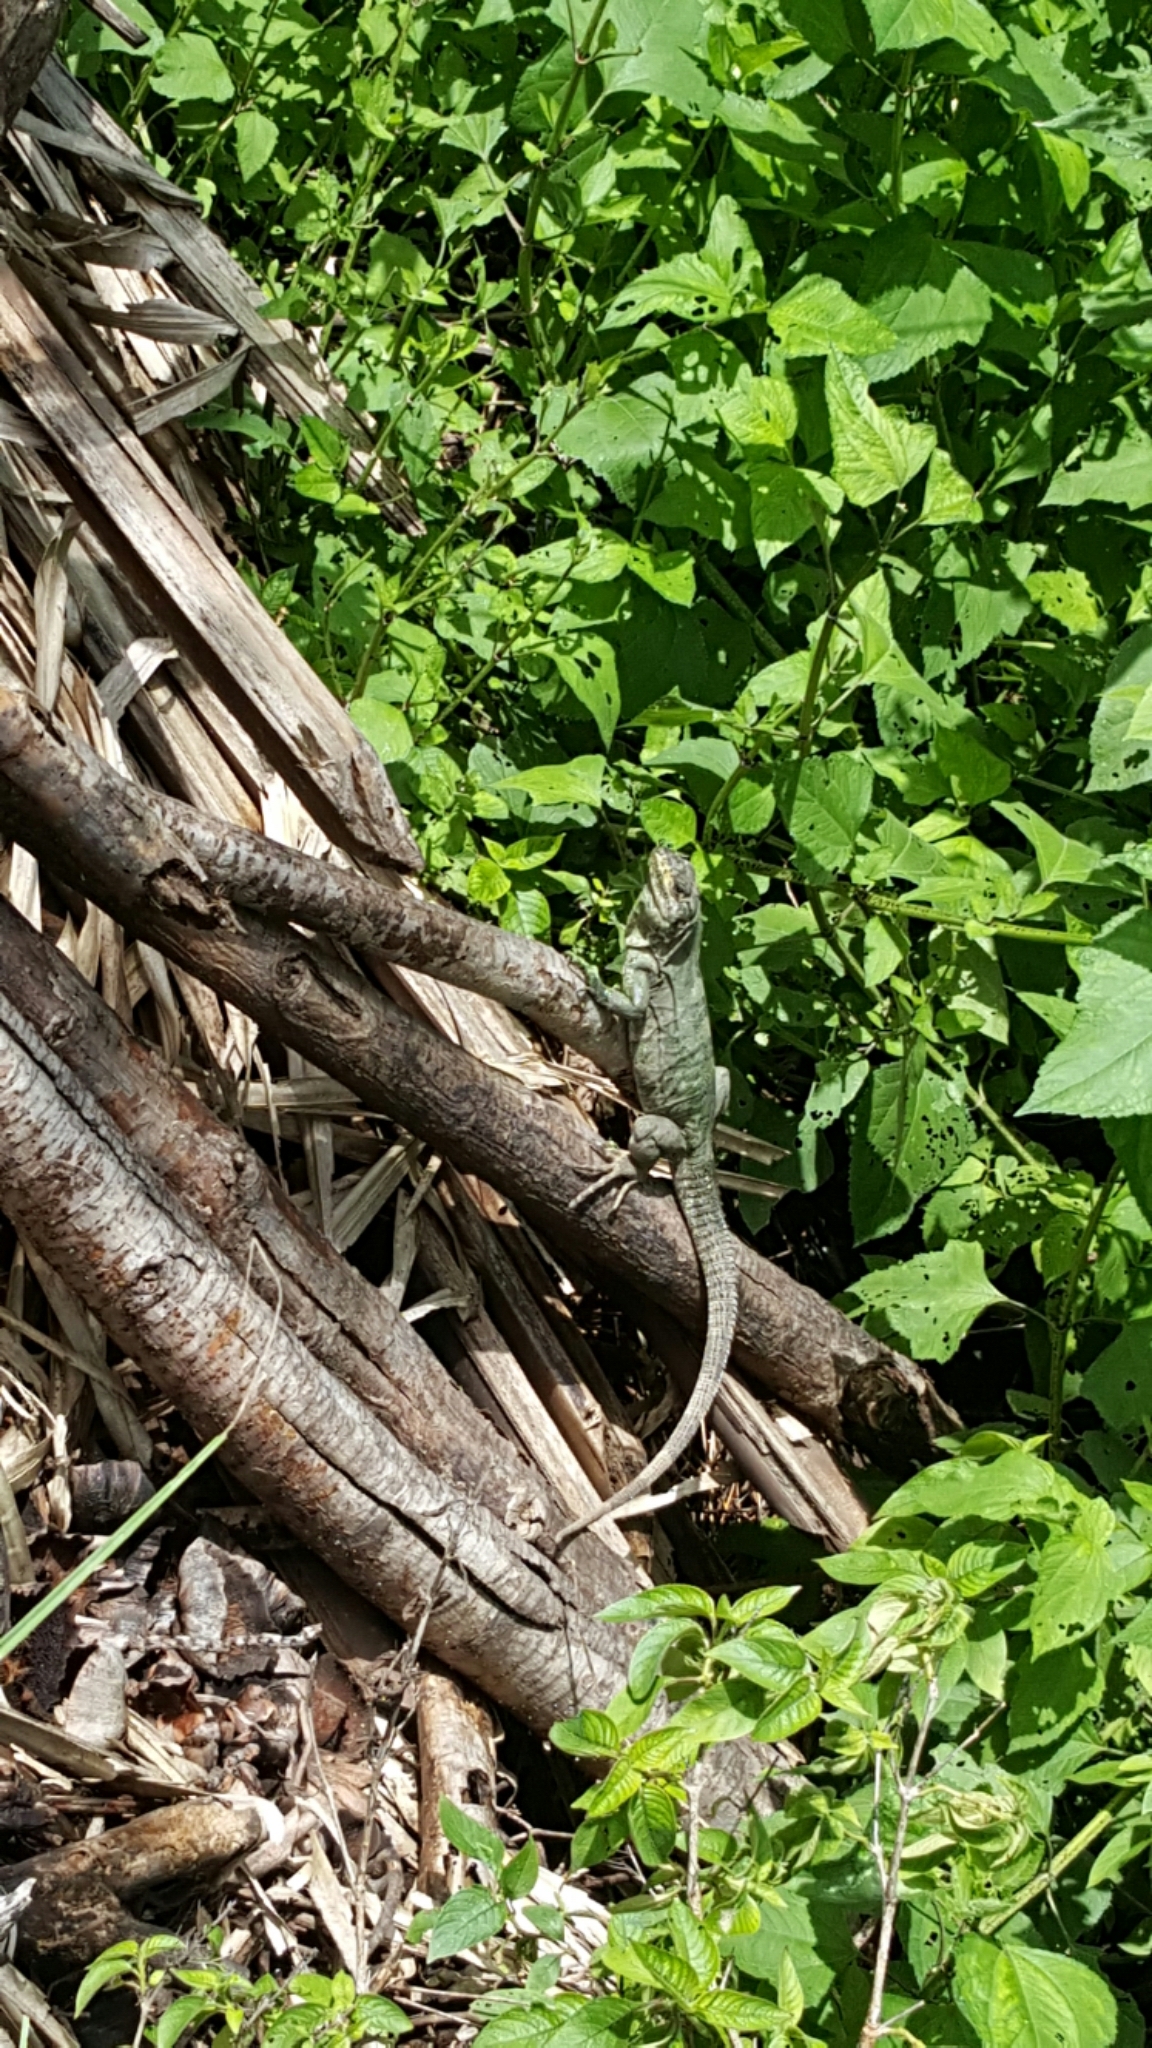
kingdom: Animalia
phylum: Chordata
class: Squamata
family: Iguanidae
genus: Ctenosaura
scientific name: Ctenosaura similis
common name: Black spiny-tailed iguana
